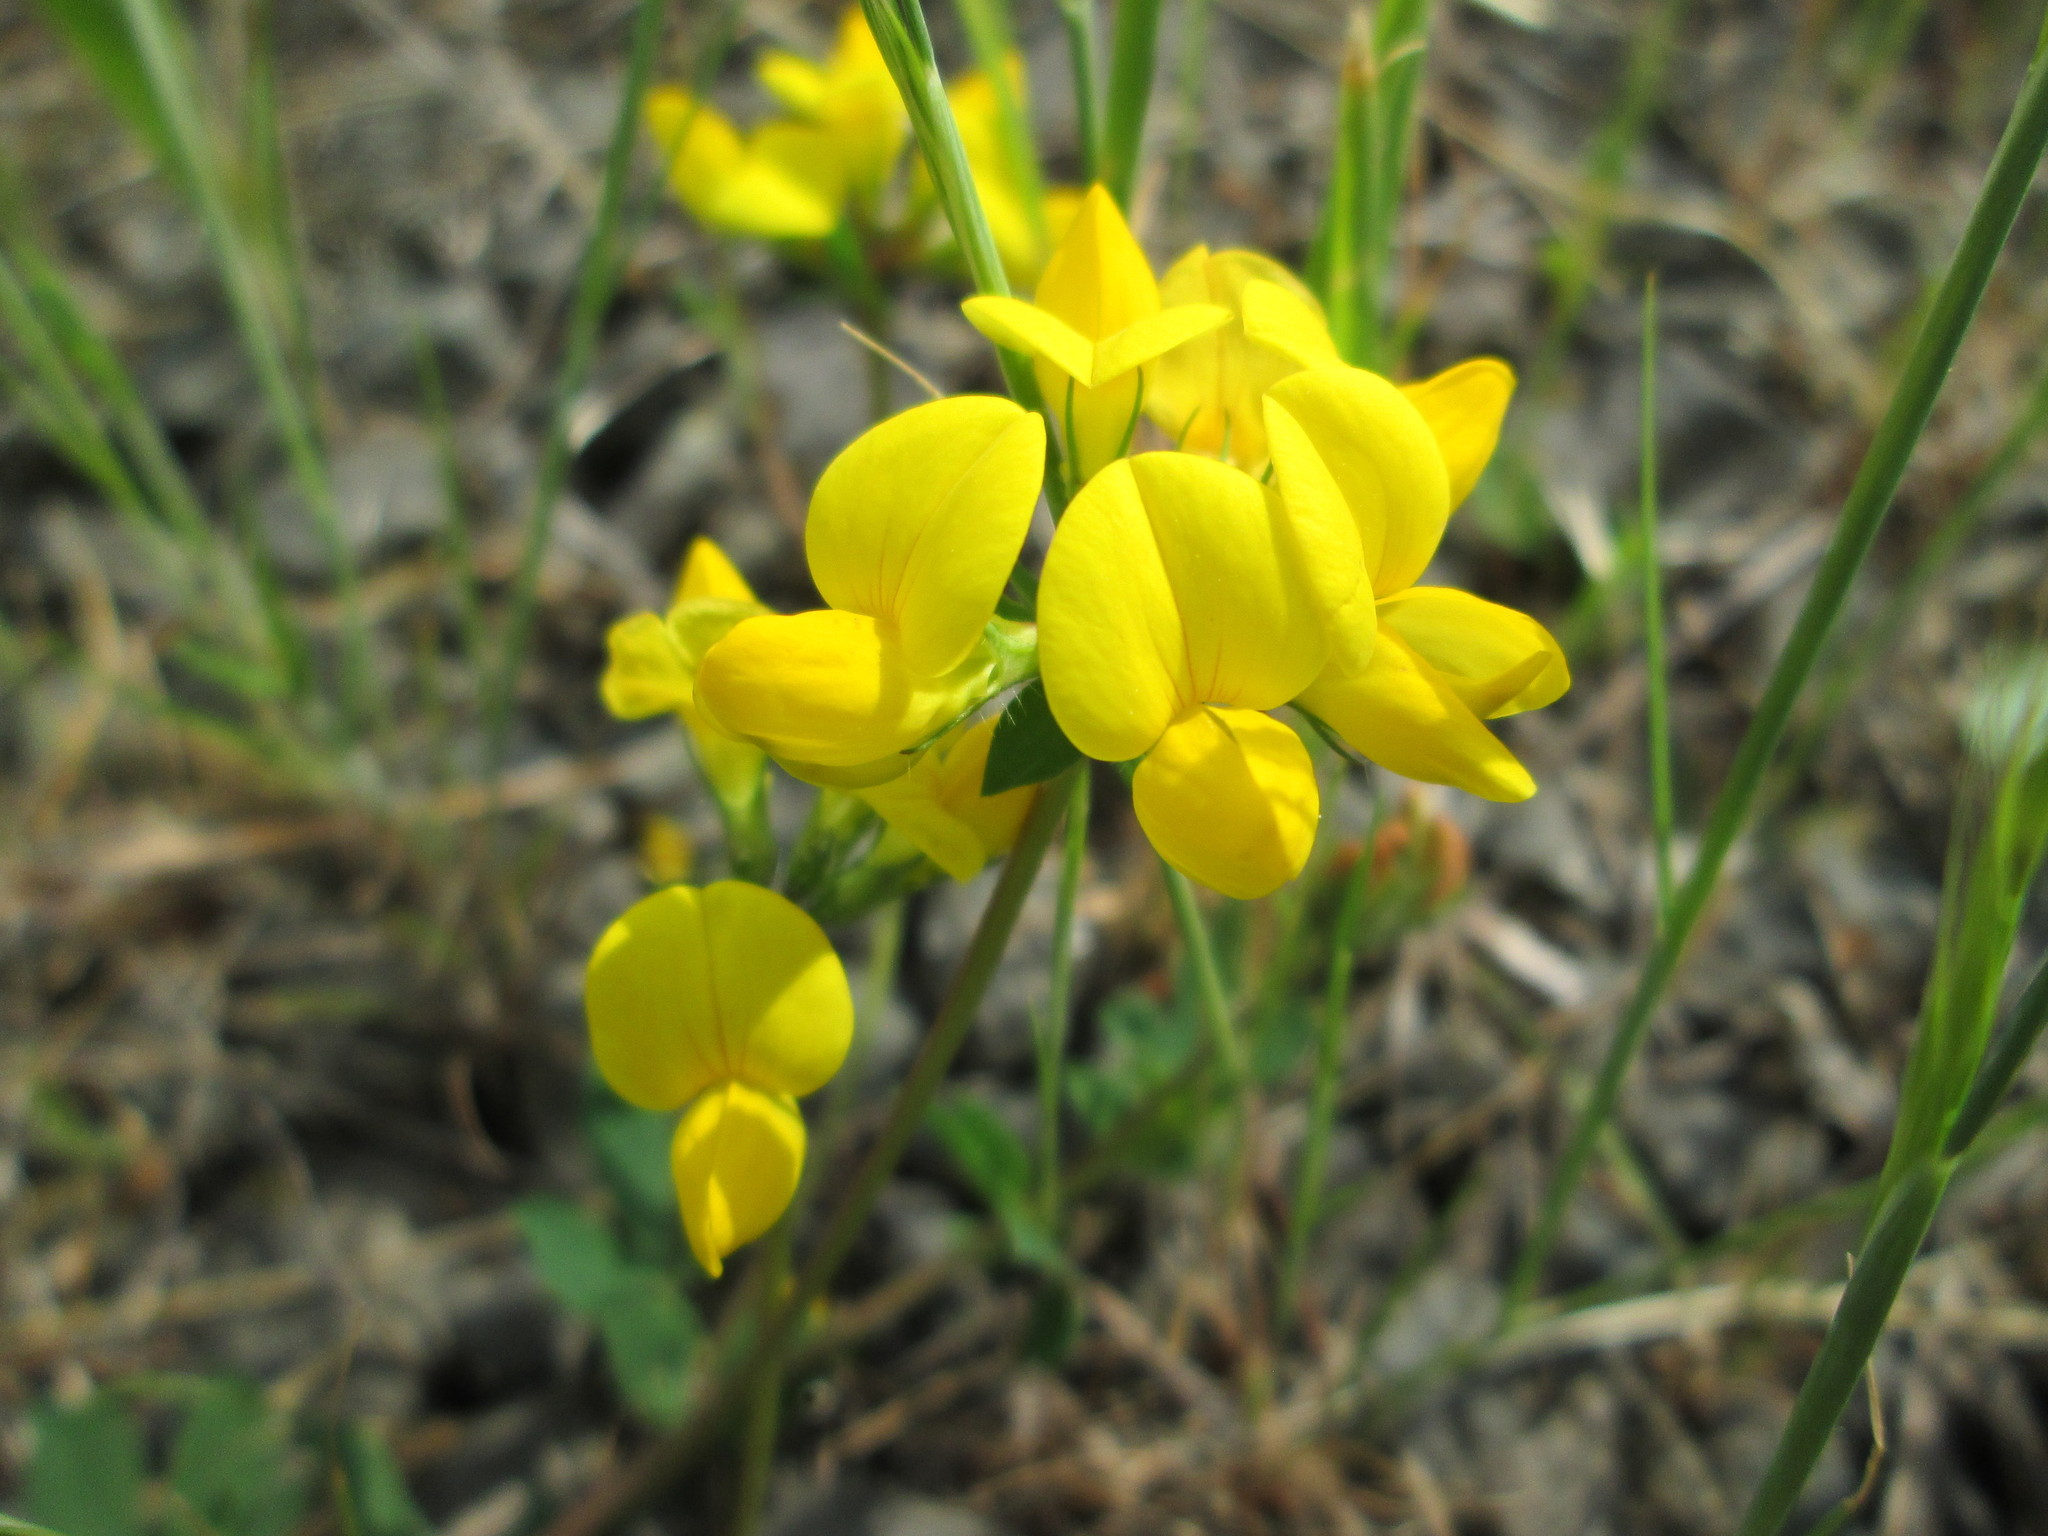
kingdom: Plantae
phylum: Tracheophyta
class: Magnoliopsida
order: Fabales
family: Fabaceae
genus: Lotus
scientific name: Lotus corniculatus
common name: Common bird's-foot-trefoil
